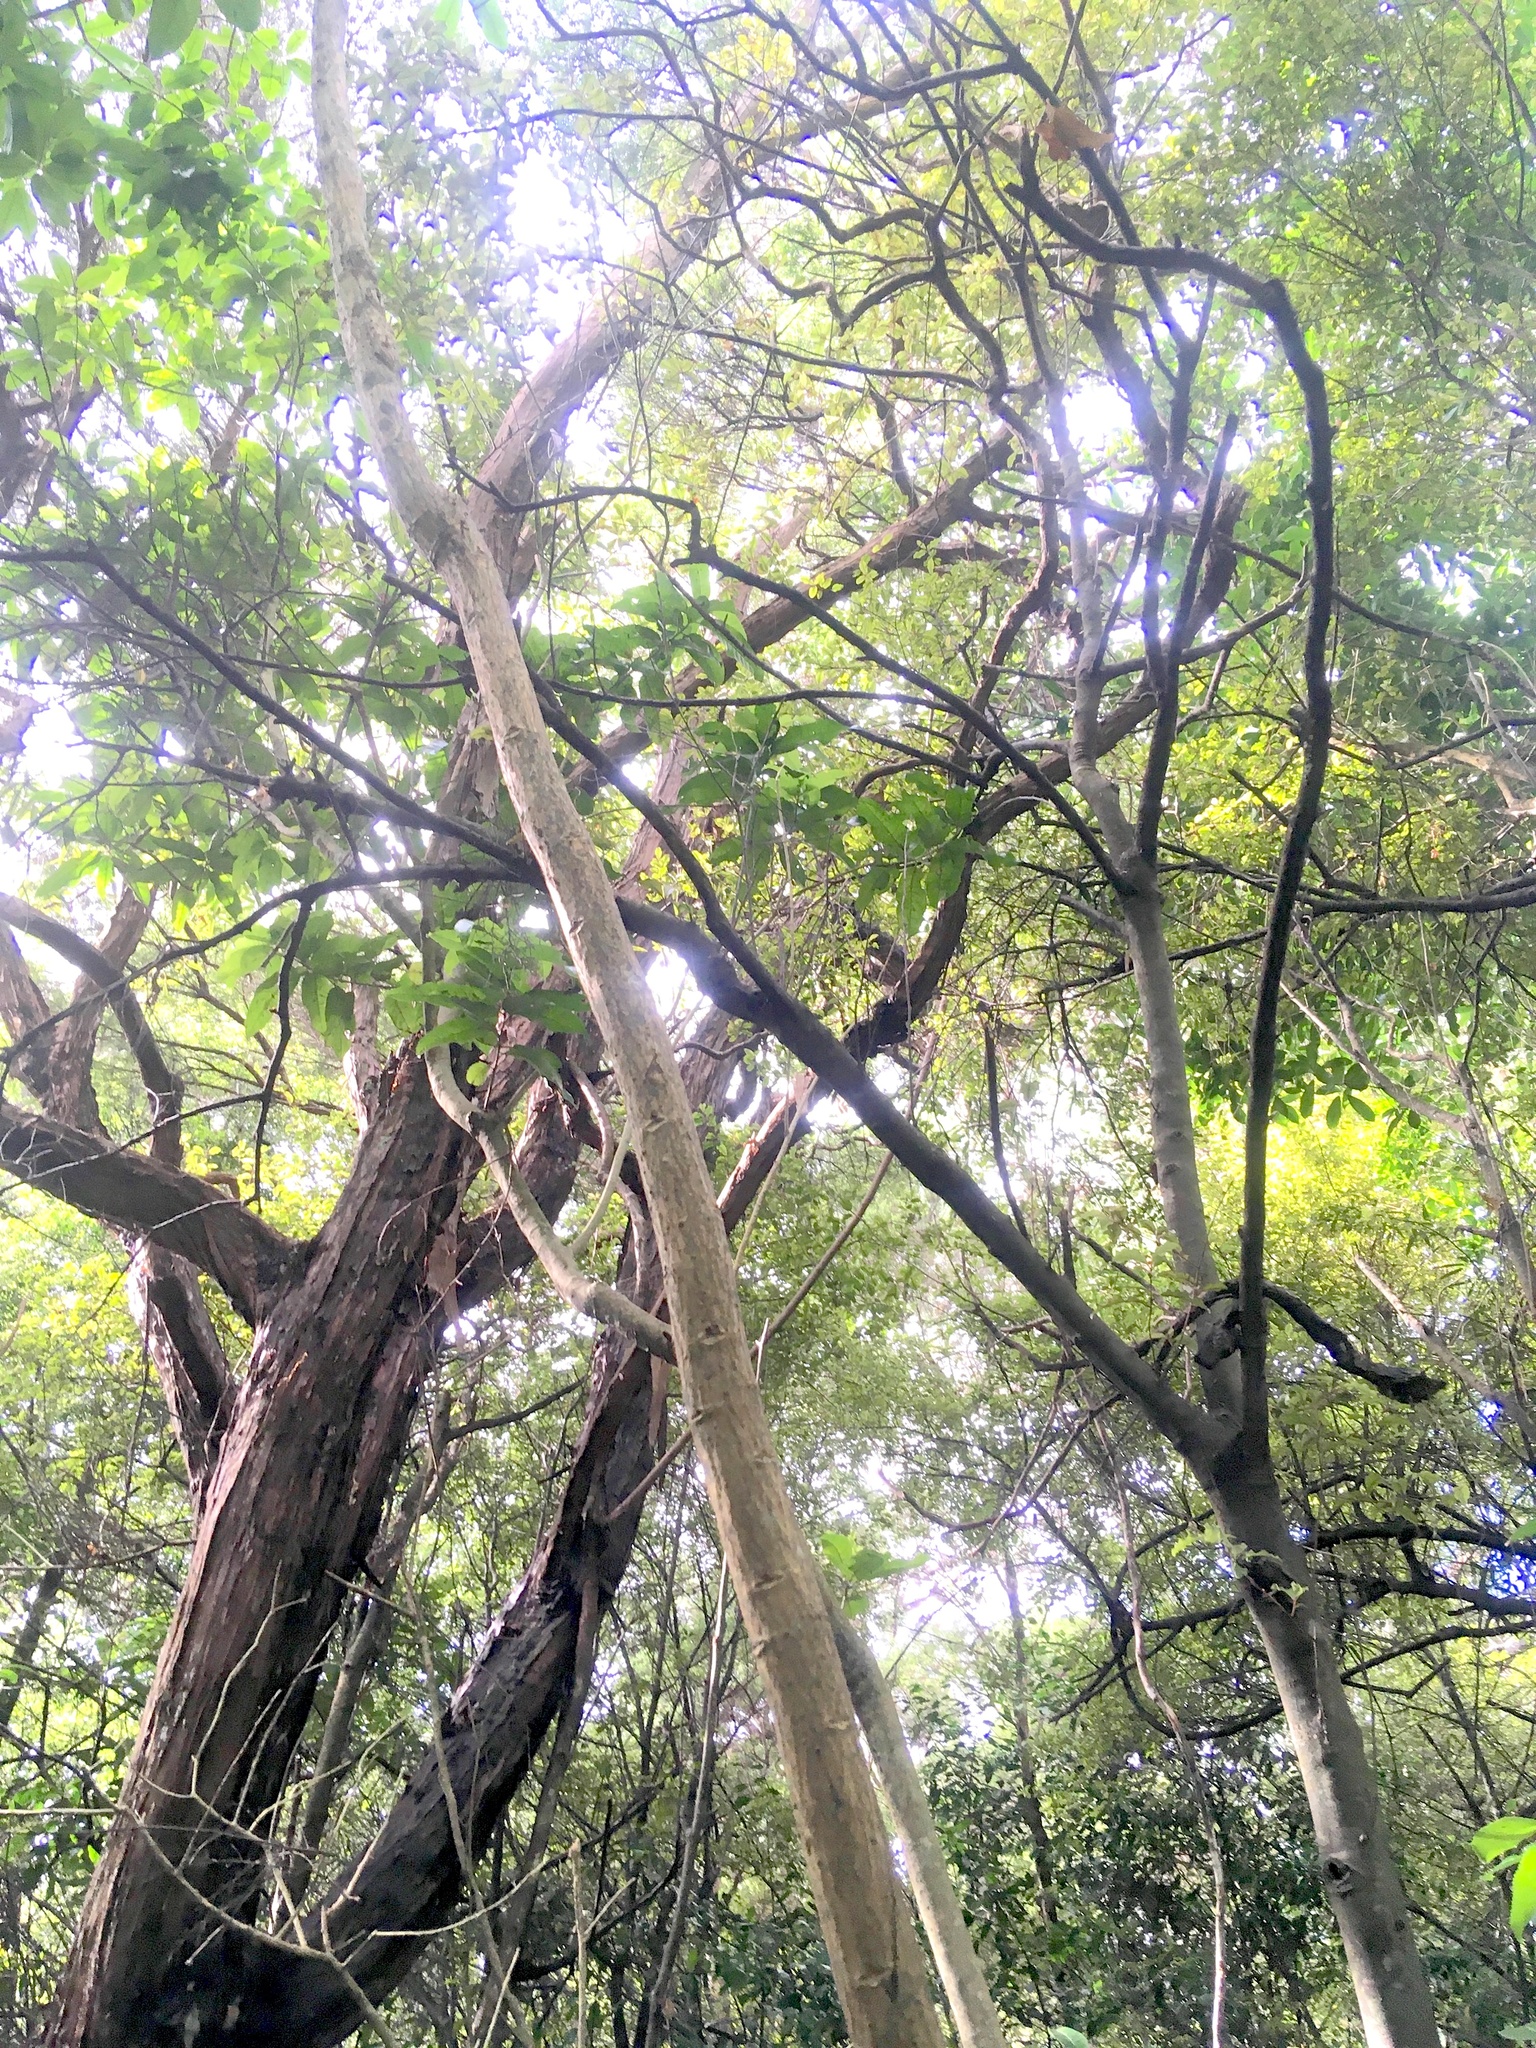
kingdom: Plantae
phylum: Tracheophyta
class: Magnoliopsida
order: Ericales
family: Primulaceae
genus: Myrsine
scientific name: Myrsine australis
